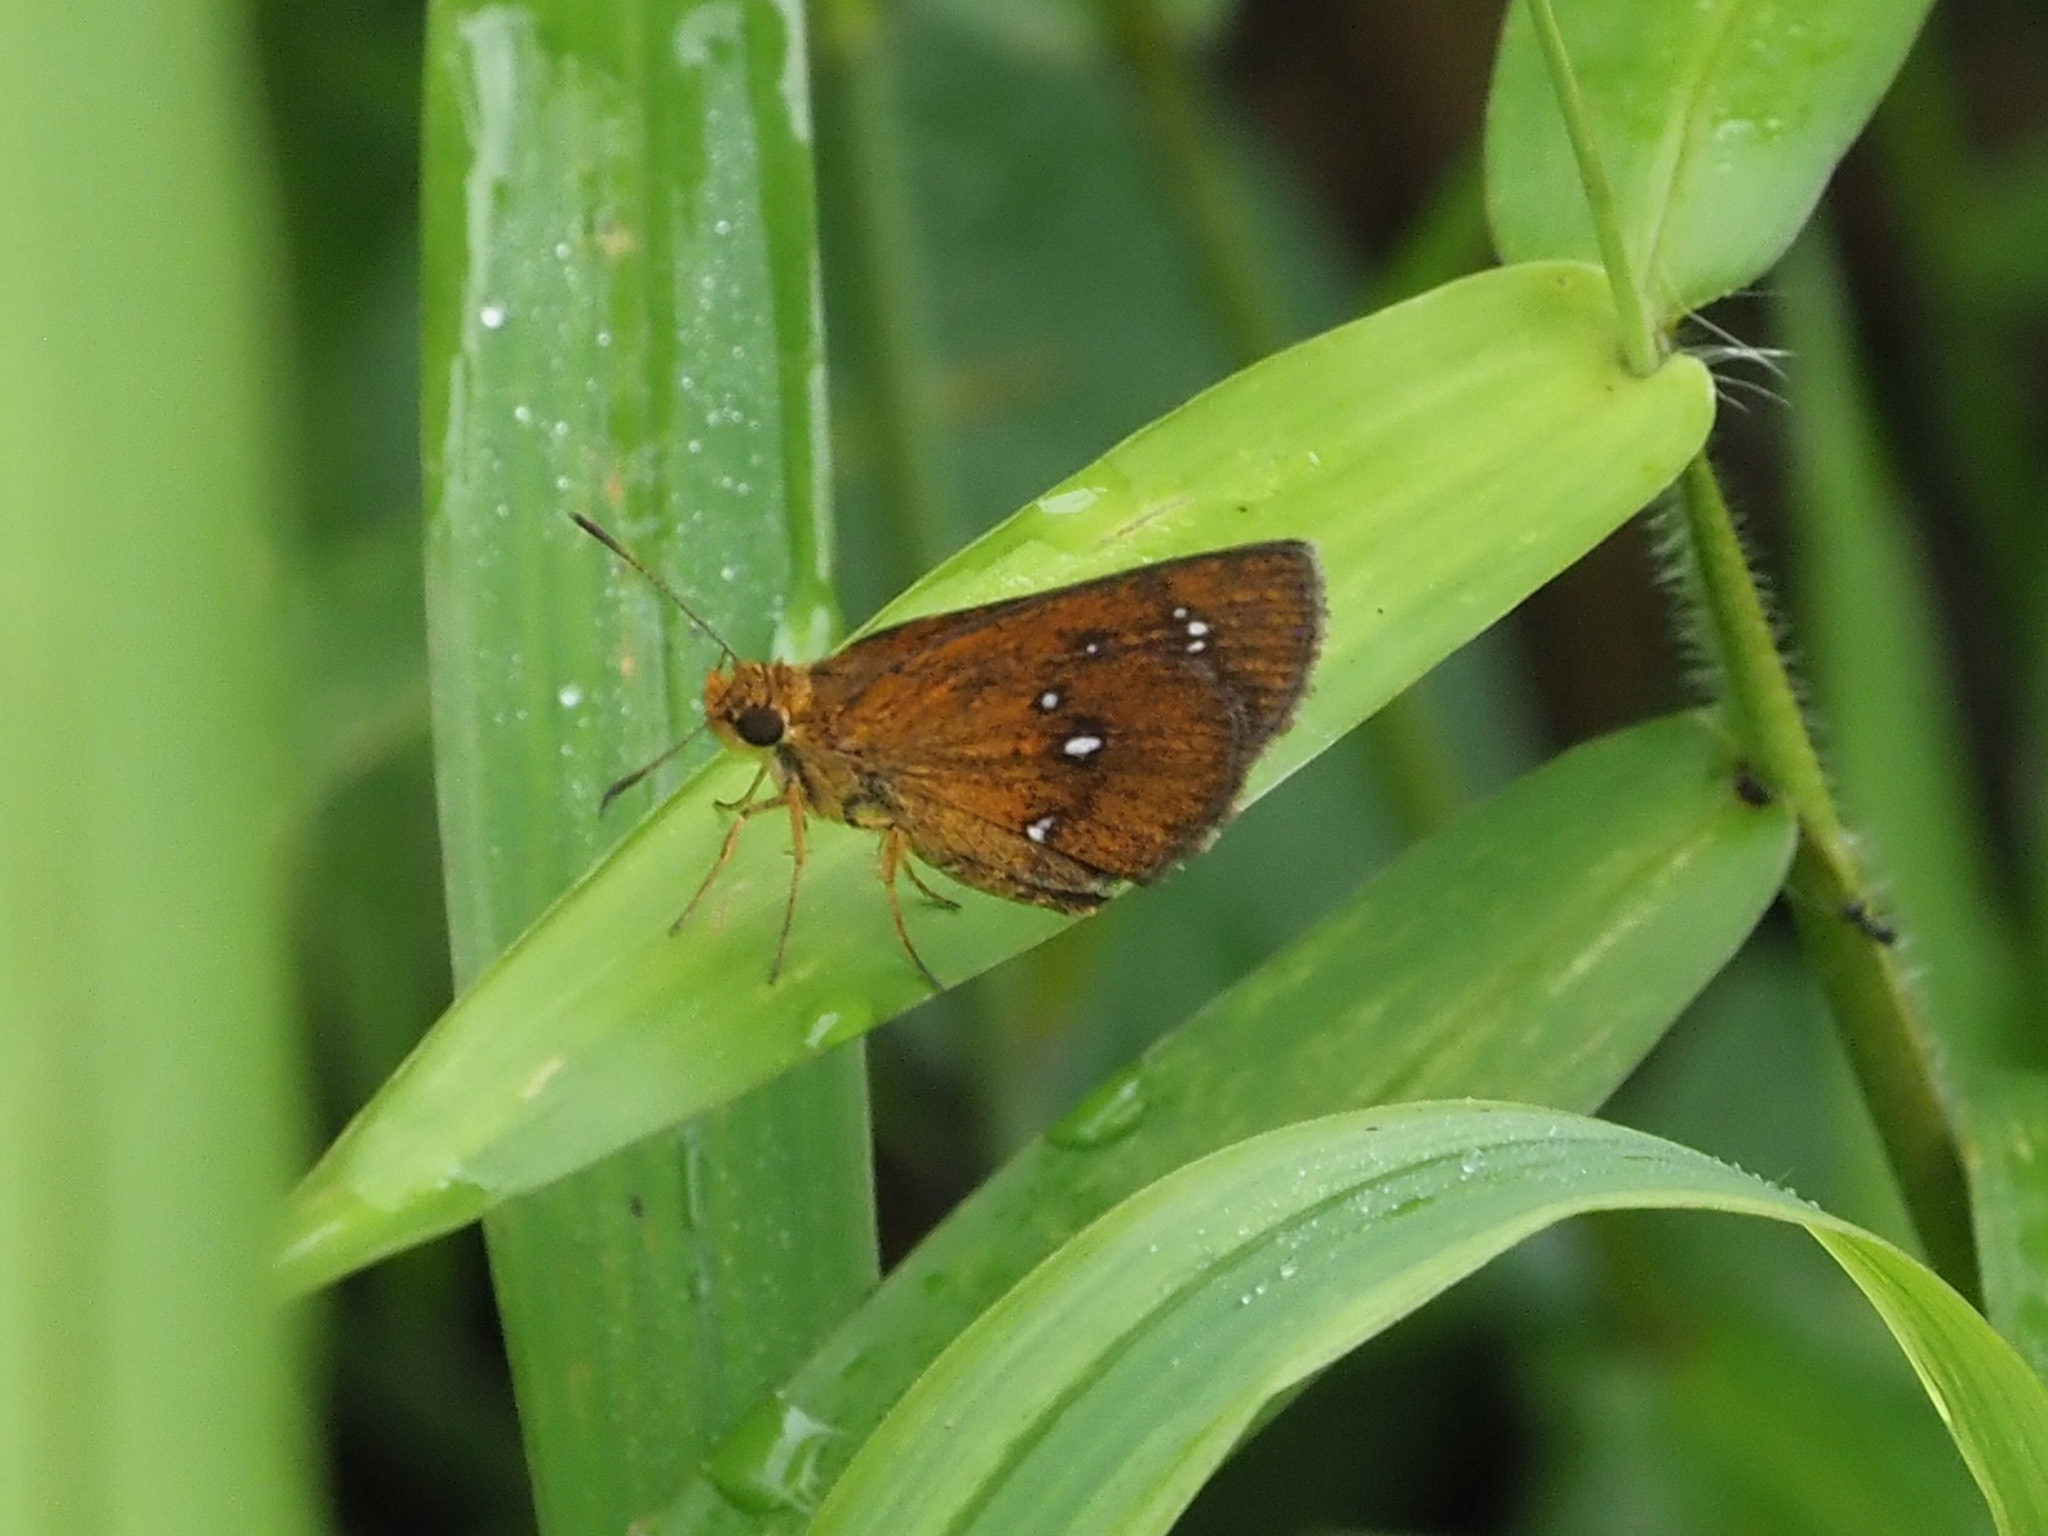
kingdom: Animalia
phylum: Arthropoda
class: Insecta
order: Lepidoptera
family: Hesperiidae
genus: Iambrix
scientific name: Iambrix salsala
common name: Chestnut bob
